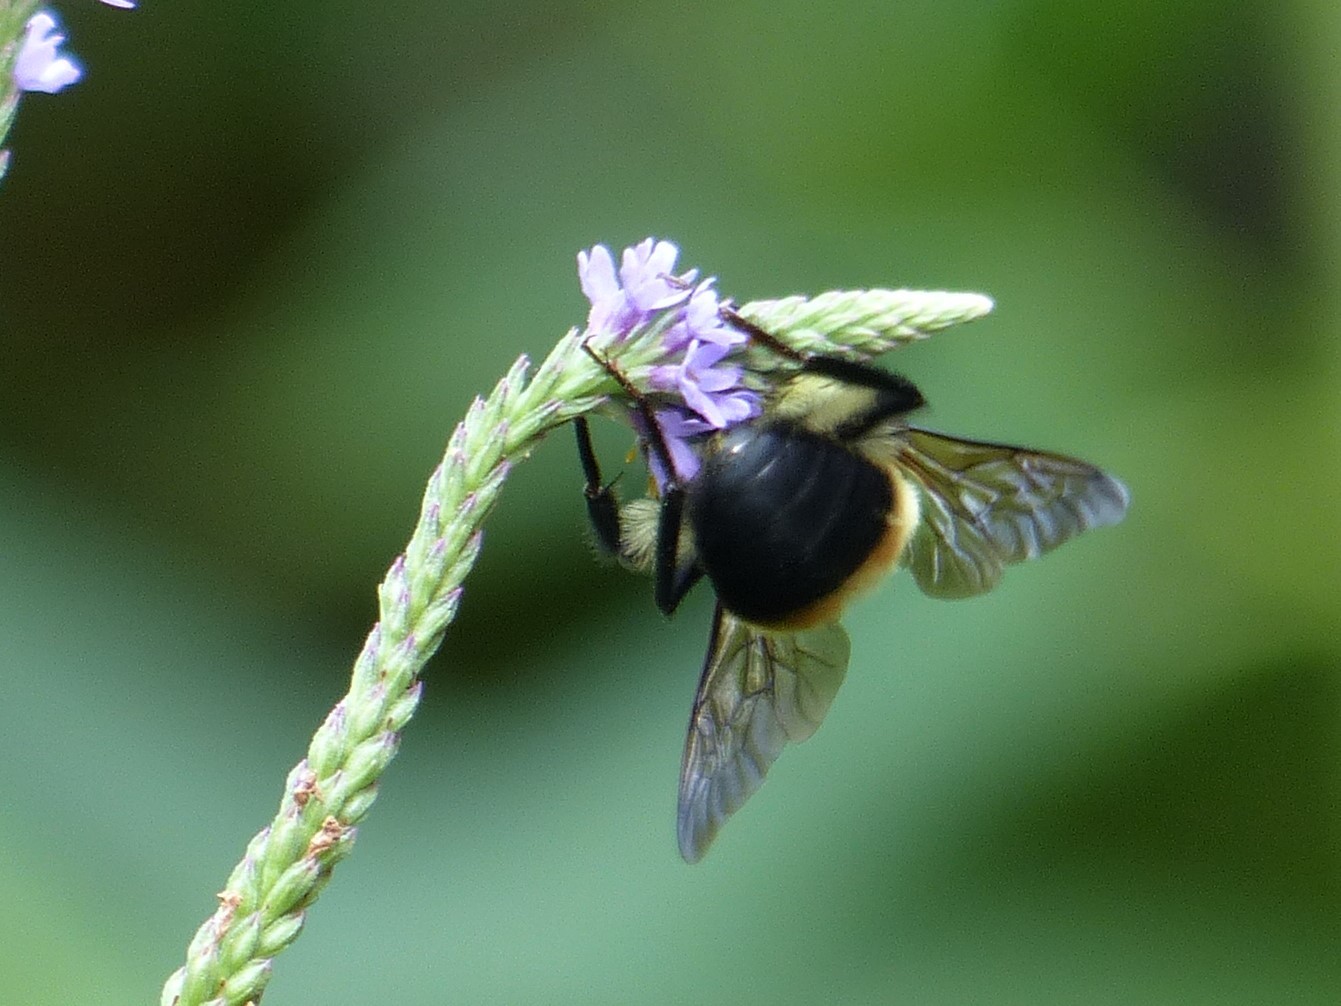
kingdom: Animalia
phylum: Arthropoda
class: Insecta
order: Hymenoptera
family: Apidae
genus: Bombus
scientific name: Bombus griseocollis
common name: Brown-belted bumble bee
